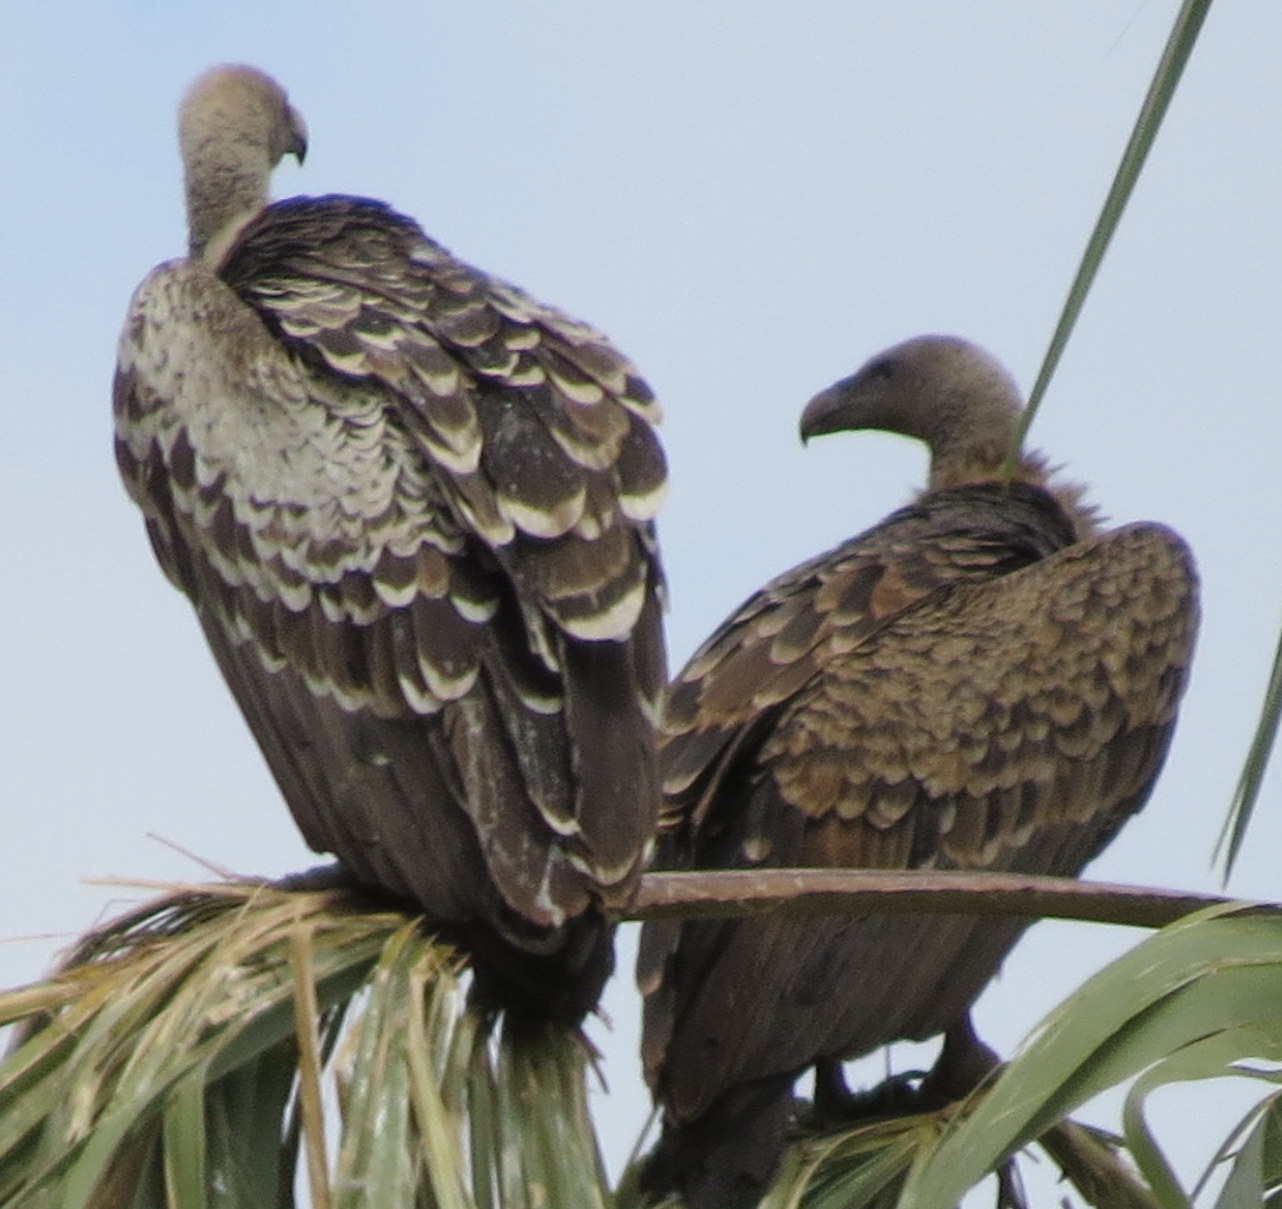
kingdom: Animalia
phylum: Chordata
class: Aves
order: Accipitriformes
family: Accipitridae
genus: Gyps
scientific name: Gyps rueppellii
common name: Rüppell's vulture
